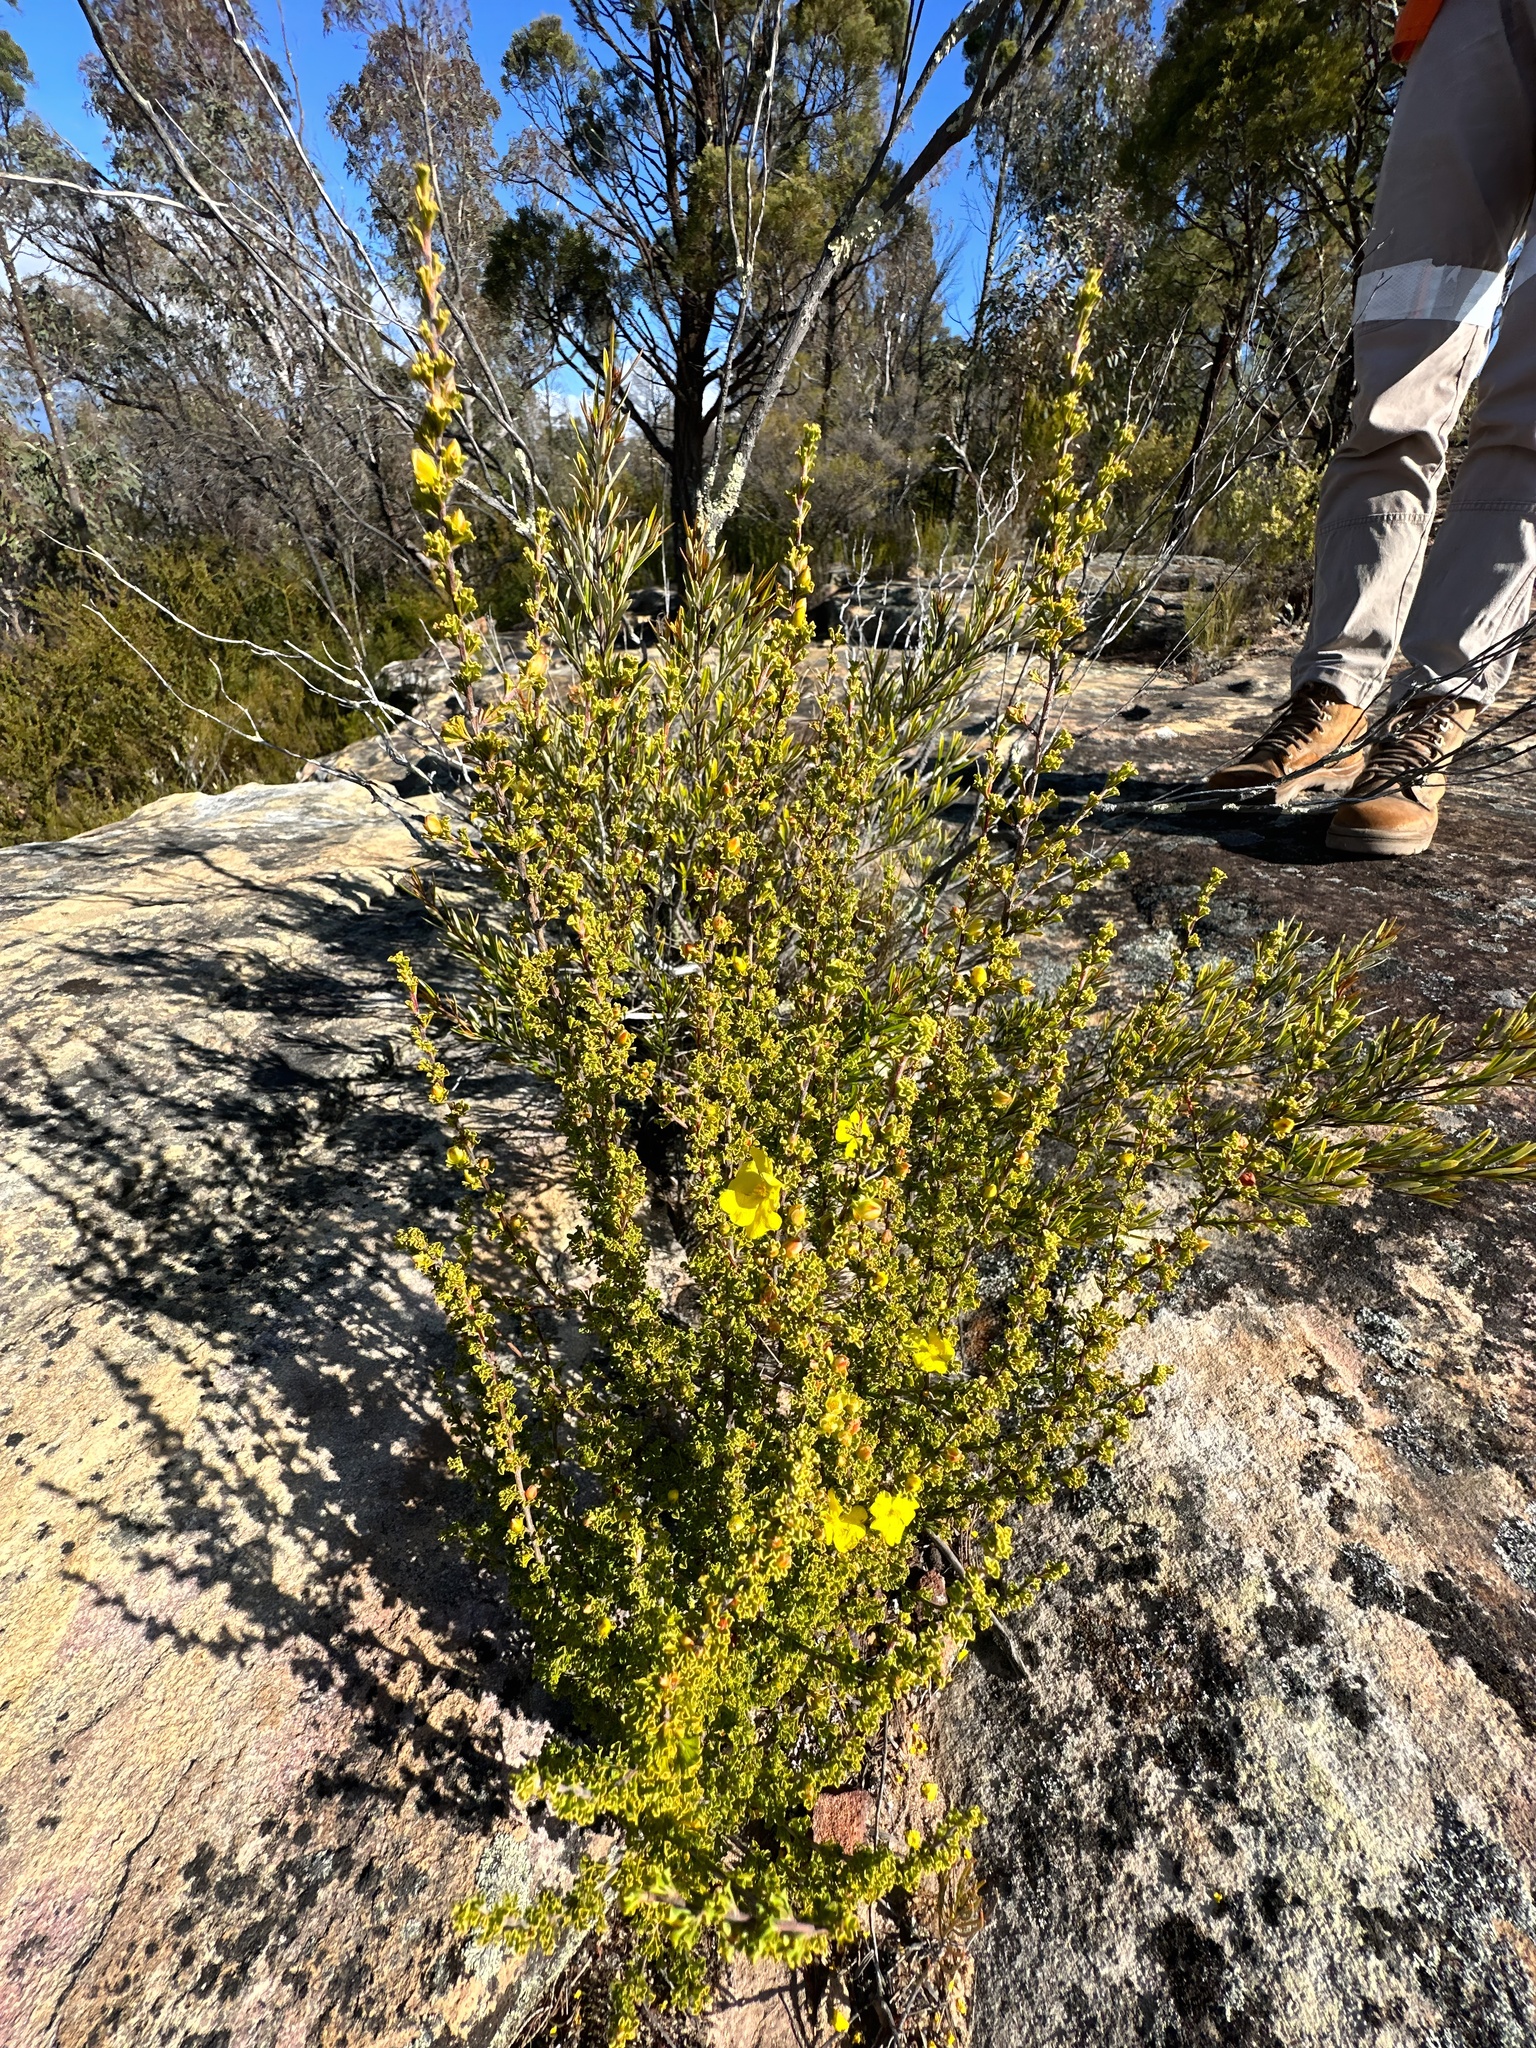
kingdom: Plantae
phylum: Tracheophyta
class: Magnoliopsida
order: Dilleniales
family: Dilleniaceae
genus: Hibbertia
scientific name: Hibbertia circumdans
